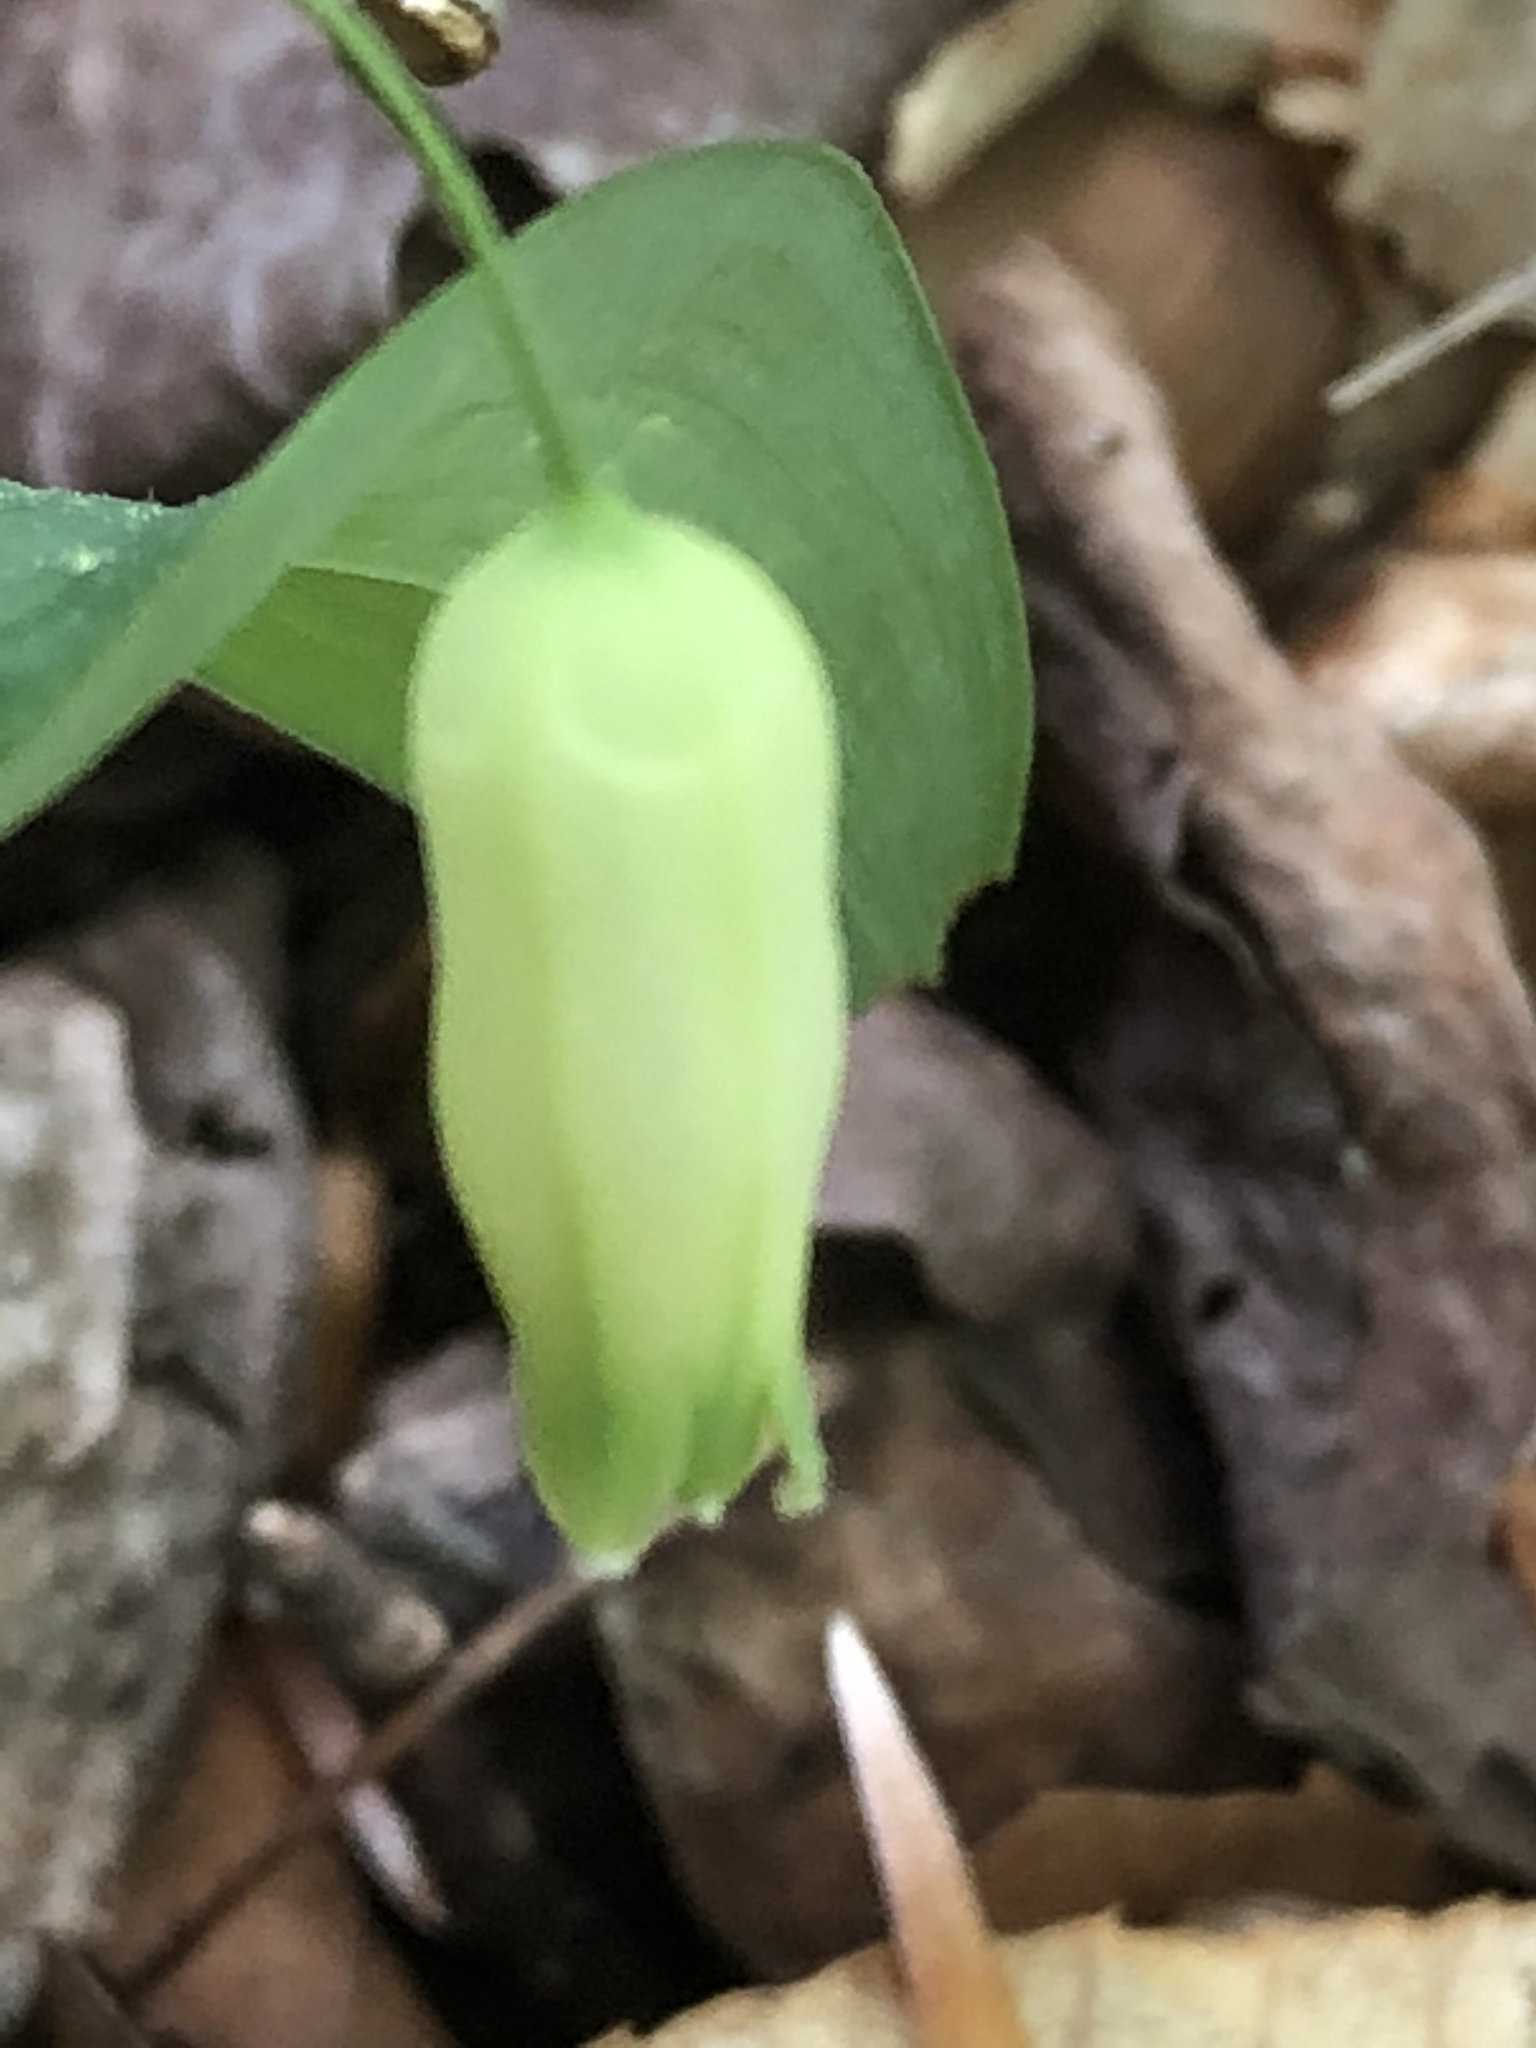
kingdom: Plantae
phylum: Tracheophyta
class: Liliopsida
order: Asparagales
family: Asparagaceae
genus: Polygonatum
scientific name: Polygonatum biflorum
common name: American solomon's-seal
